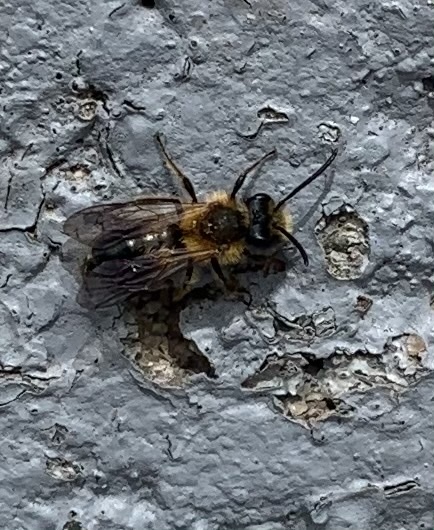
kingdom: Animalia
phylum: Arthropoda
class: Insecta
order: Hymenoptera
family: Andrenidae
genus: Andrena
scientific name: Andrena milwaukeensis
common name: Milwaukee mining bee
